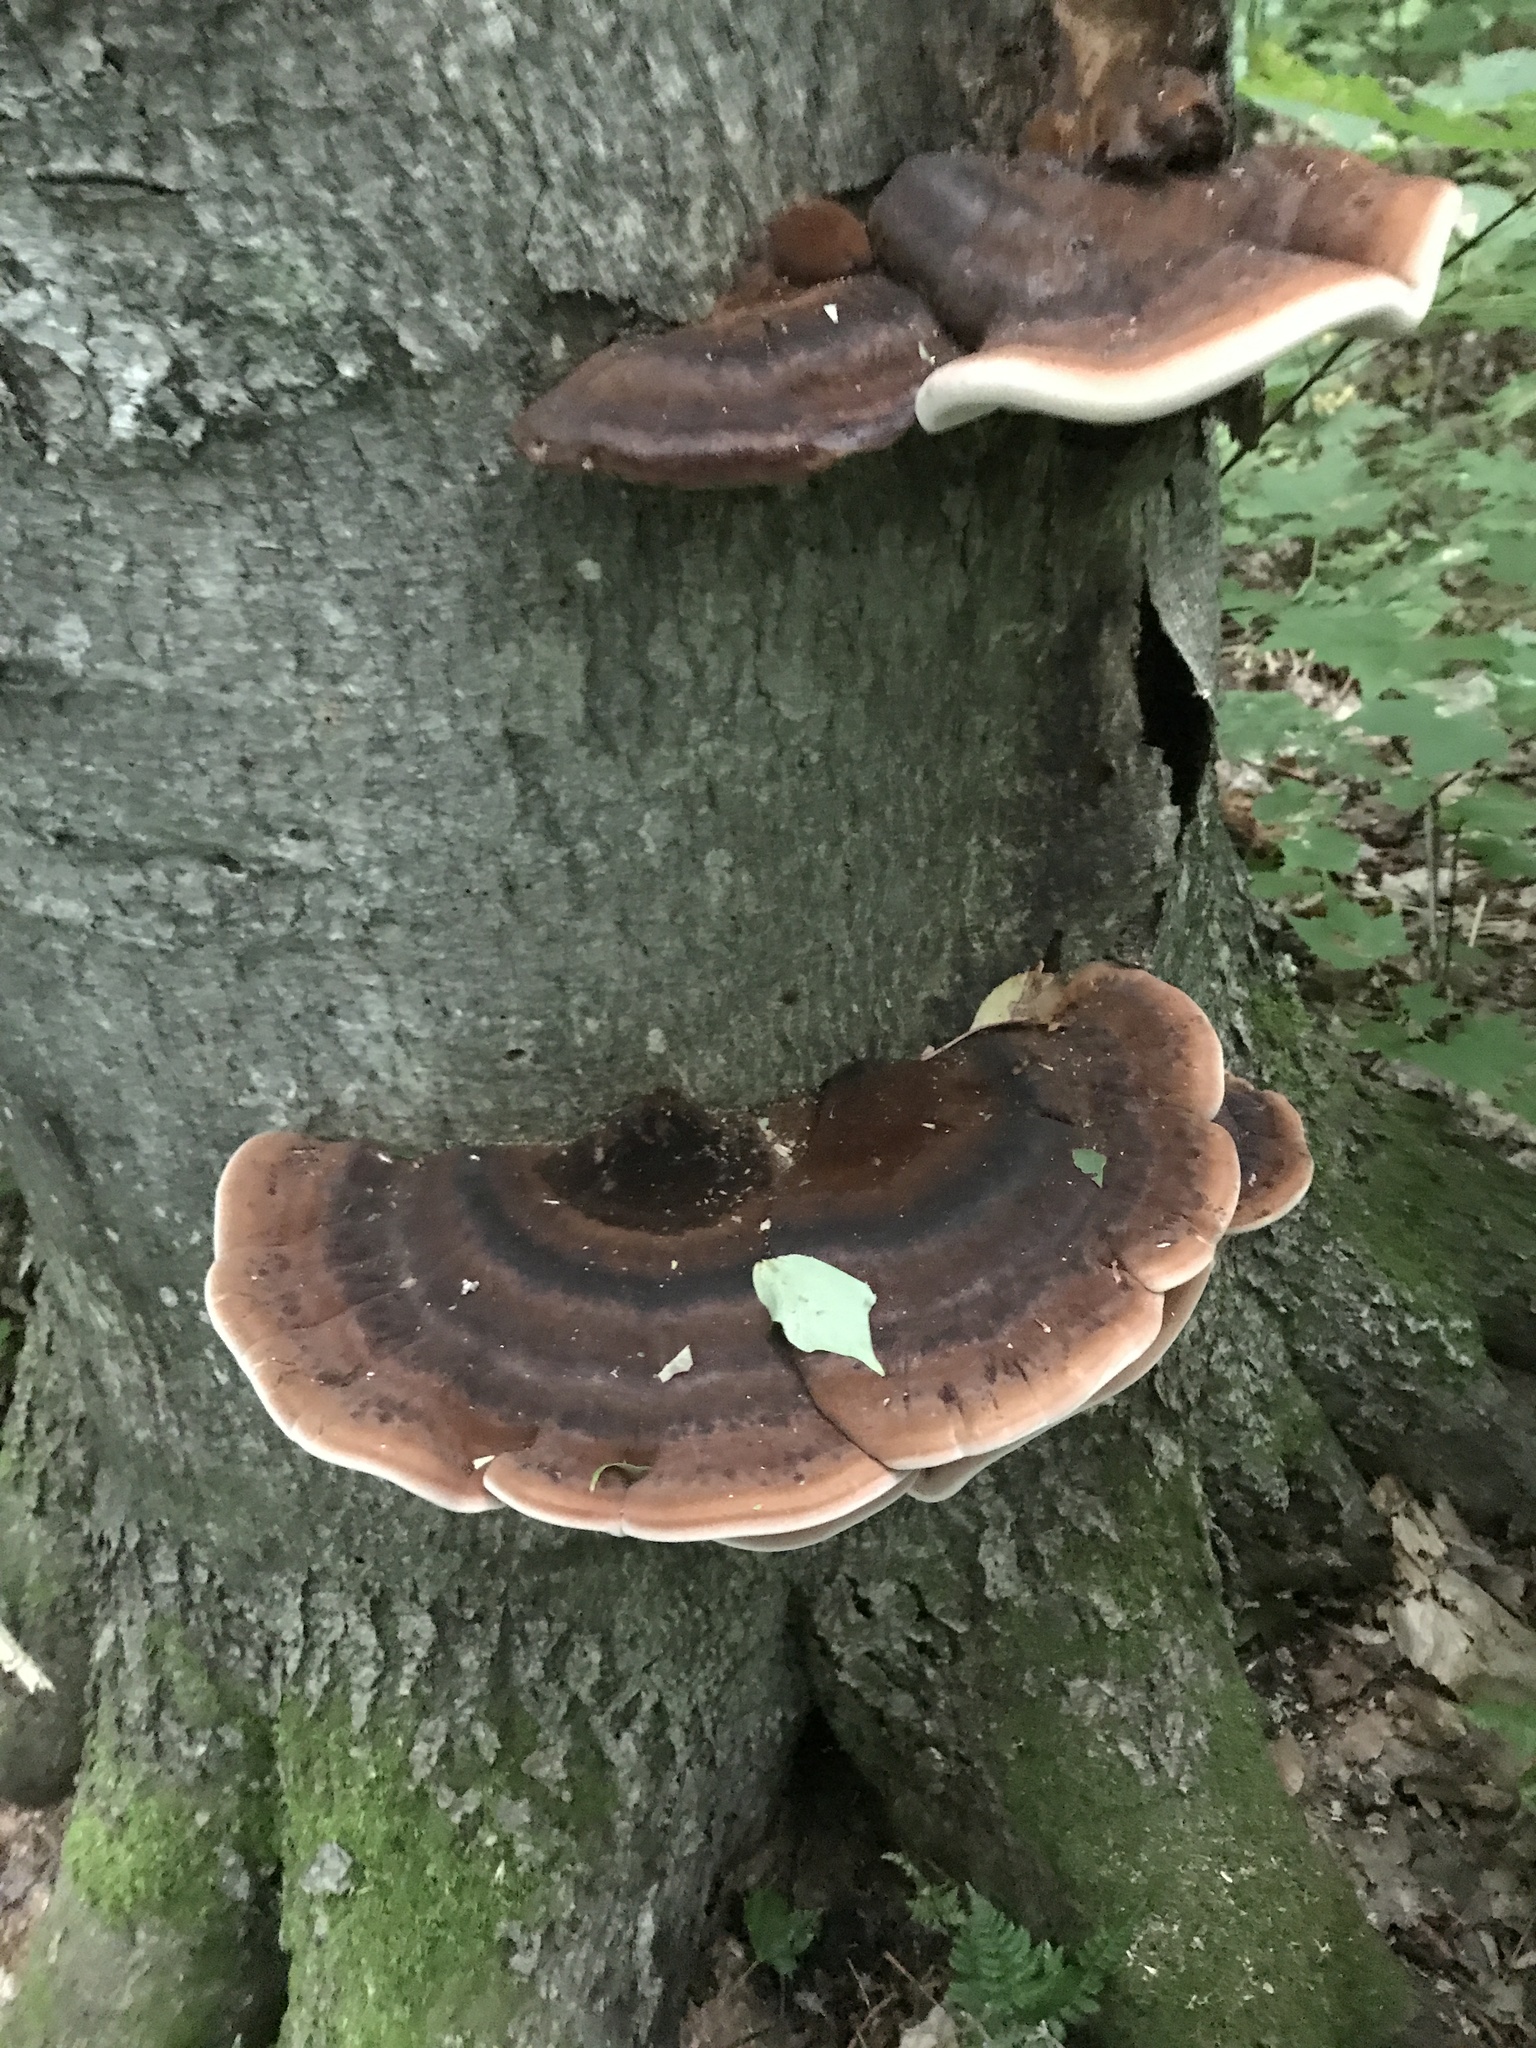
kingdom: Fungi
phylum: Basidiomycota
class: Agaricomycetes
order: Polyporales
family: Ischnodermataceae
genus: Ischnoderma
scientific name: Ischnoderma resinosum
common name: Resinous polypore
